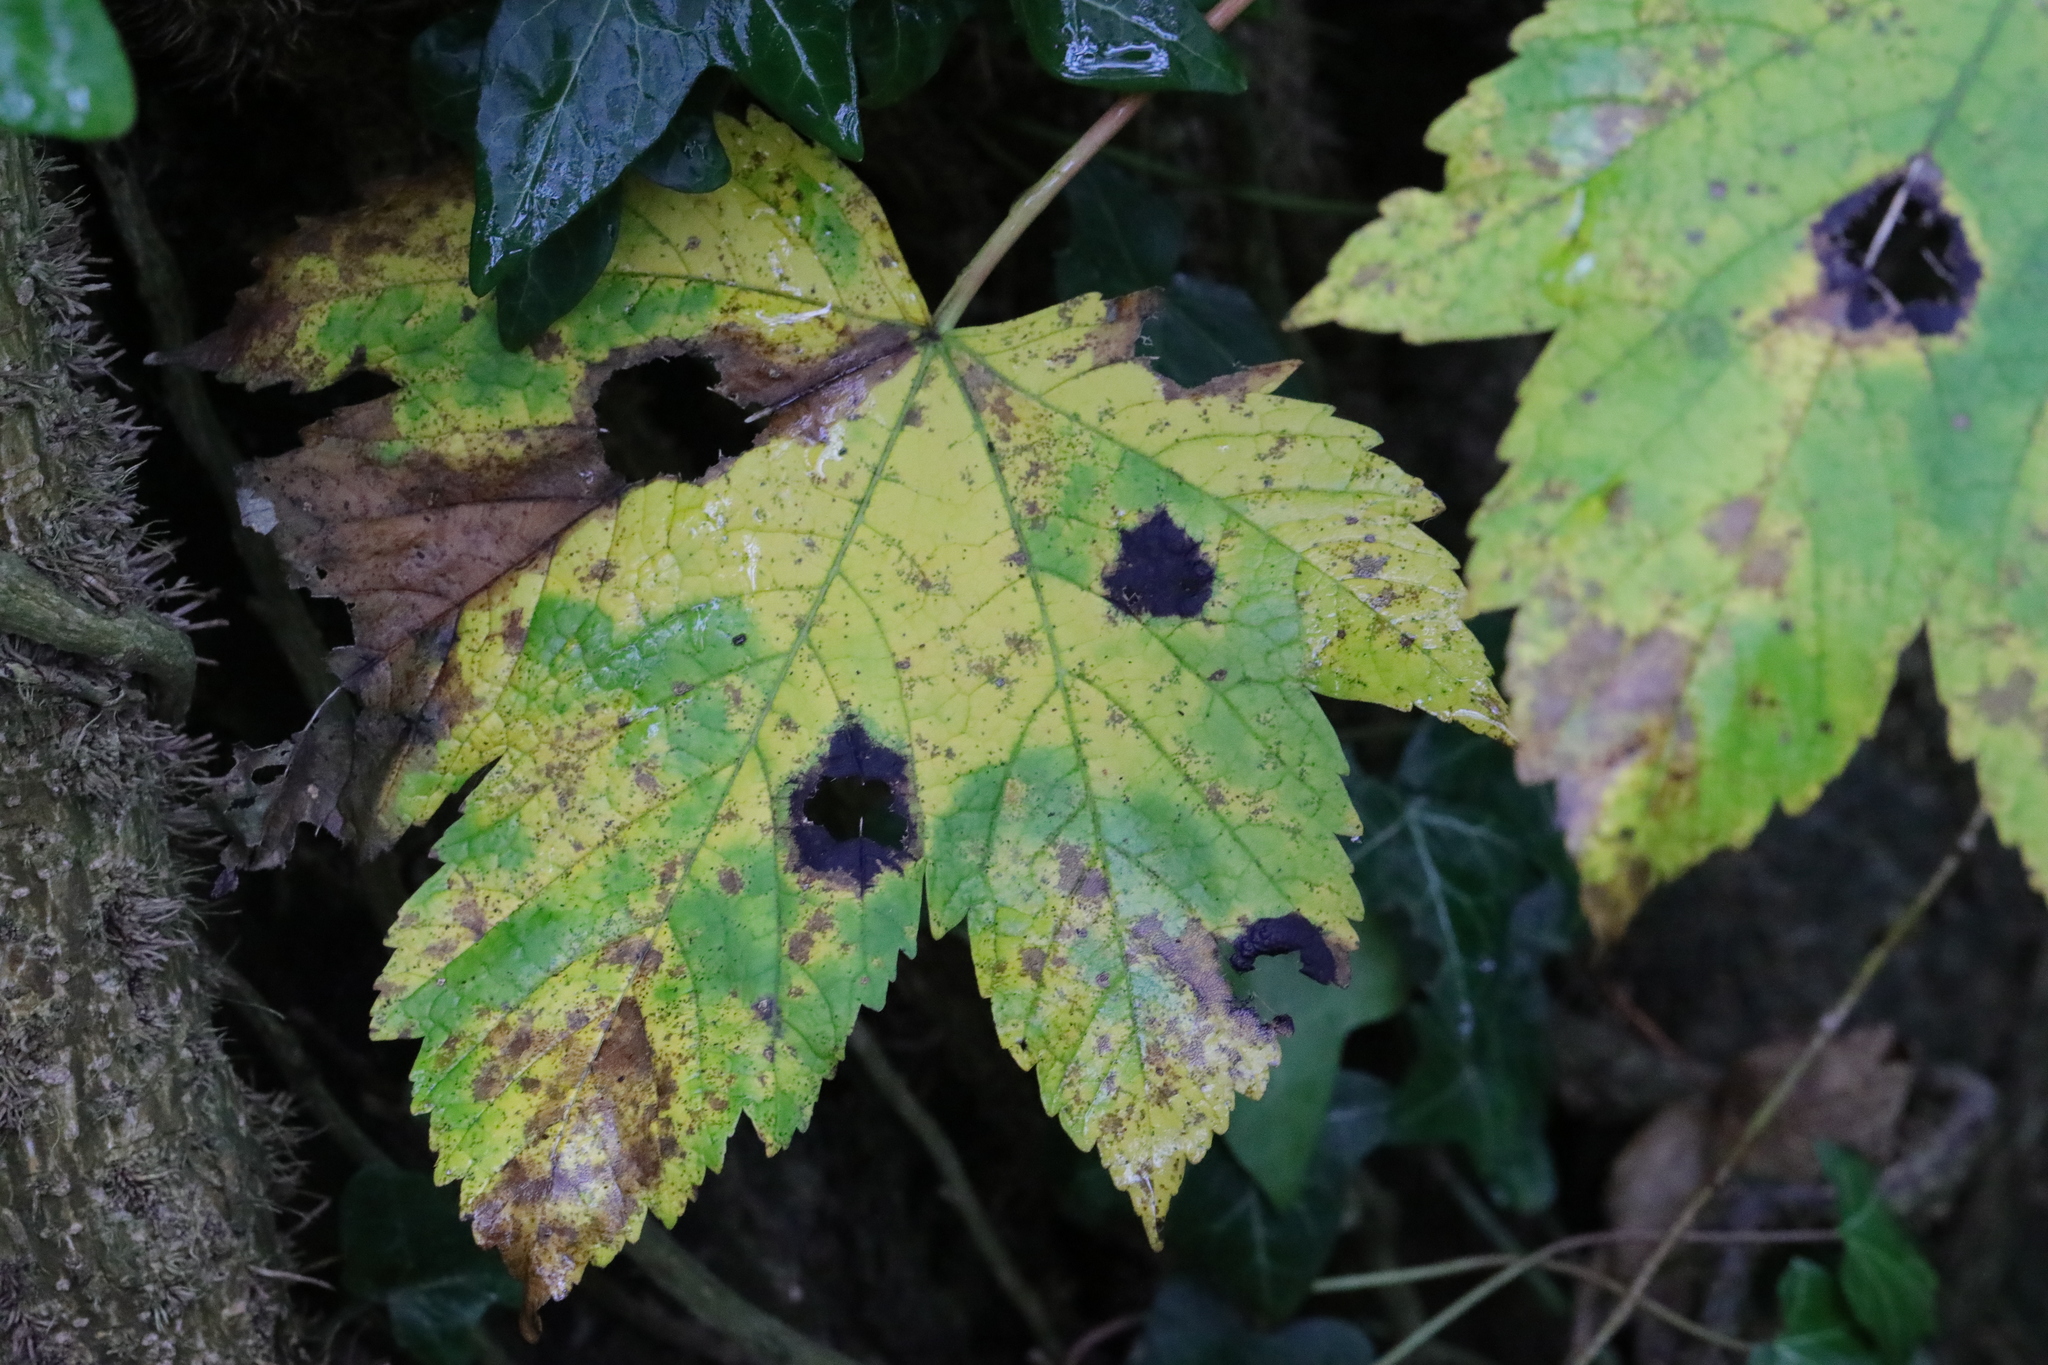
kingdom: Plantae
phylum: Tracheophyta
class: Magnoliopsida
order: Sapindales
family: Sapindaceae
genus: Acer
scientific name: Acer pseudoplatanus
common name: Sycamore
